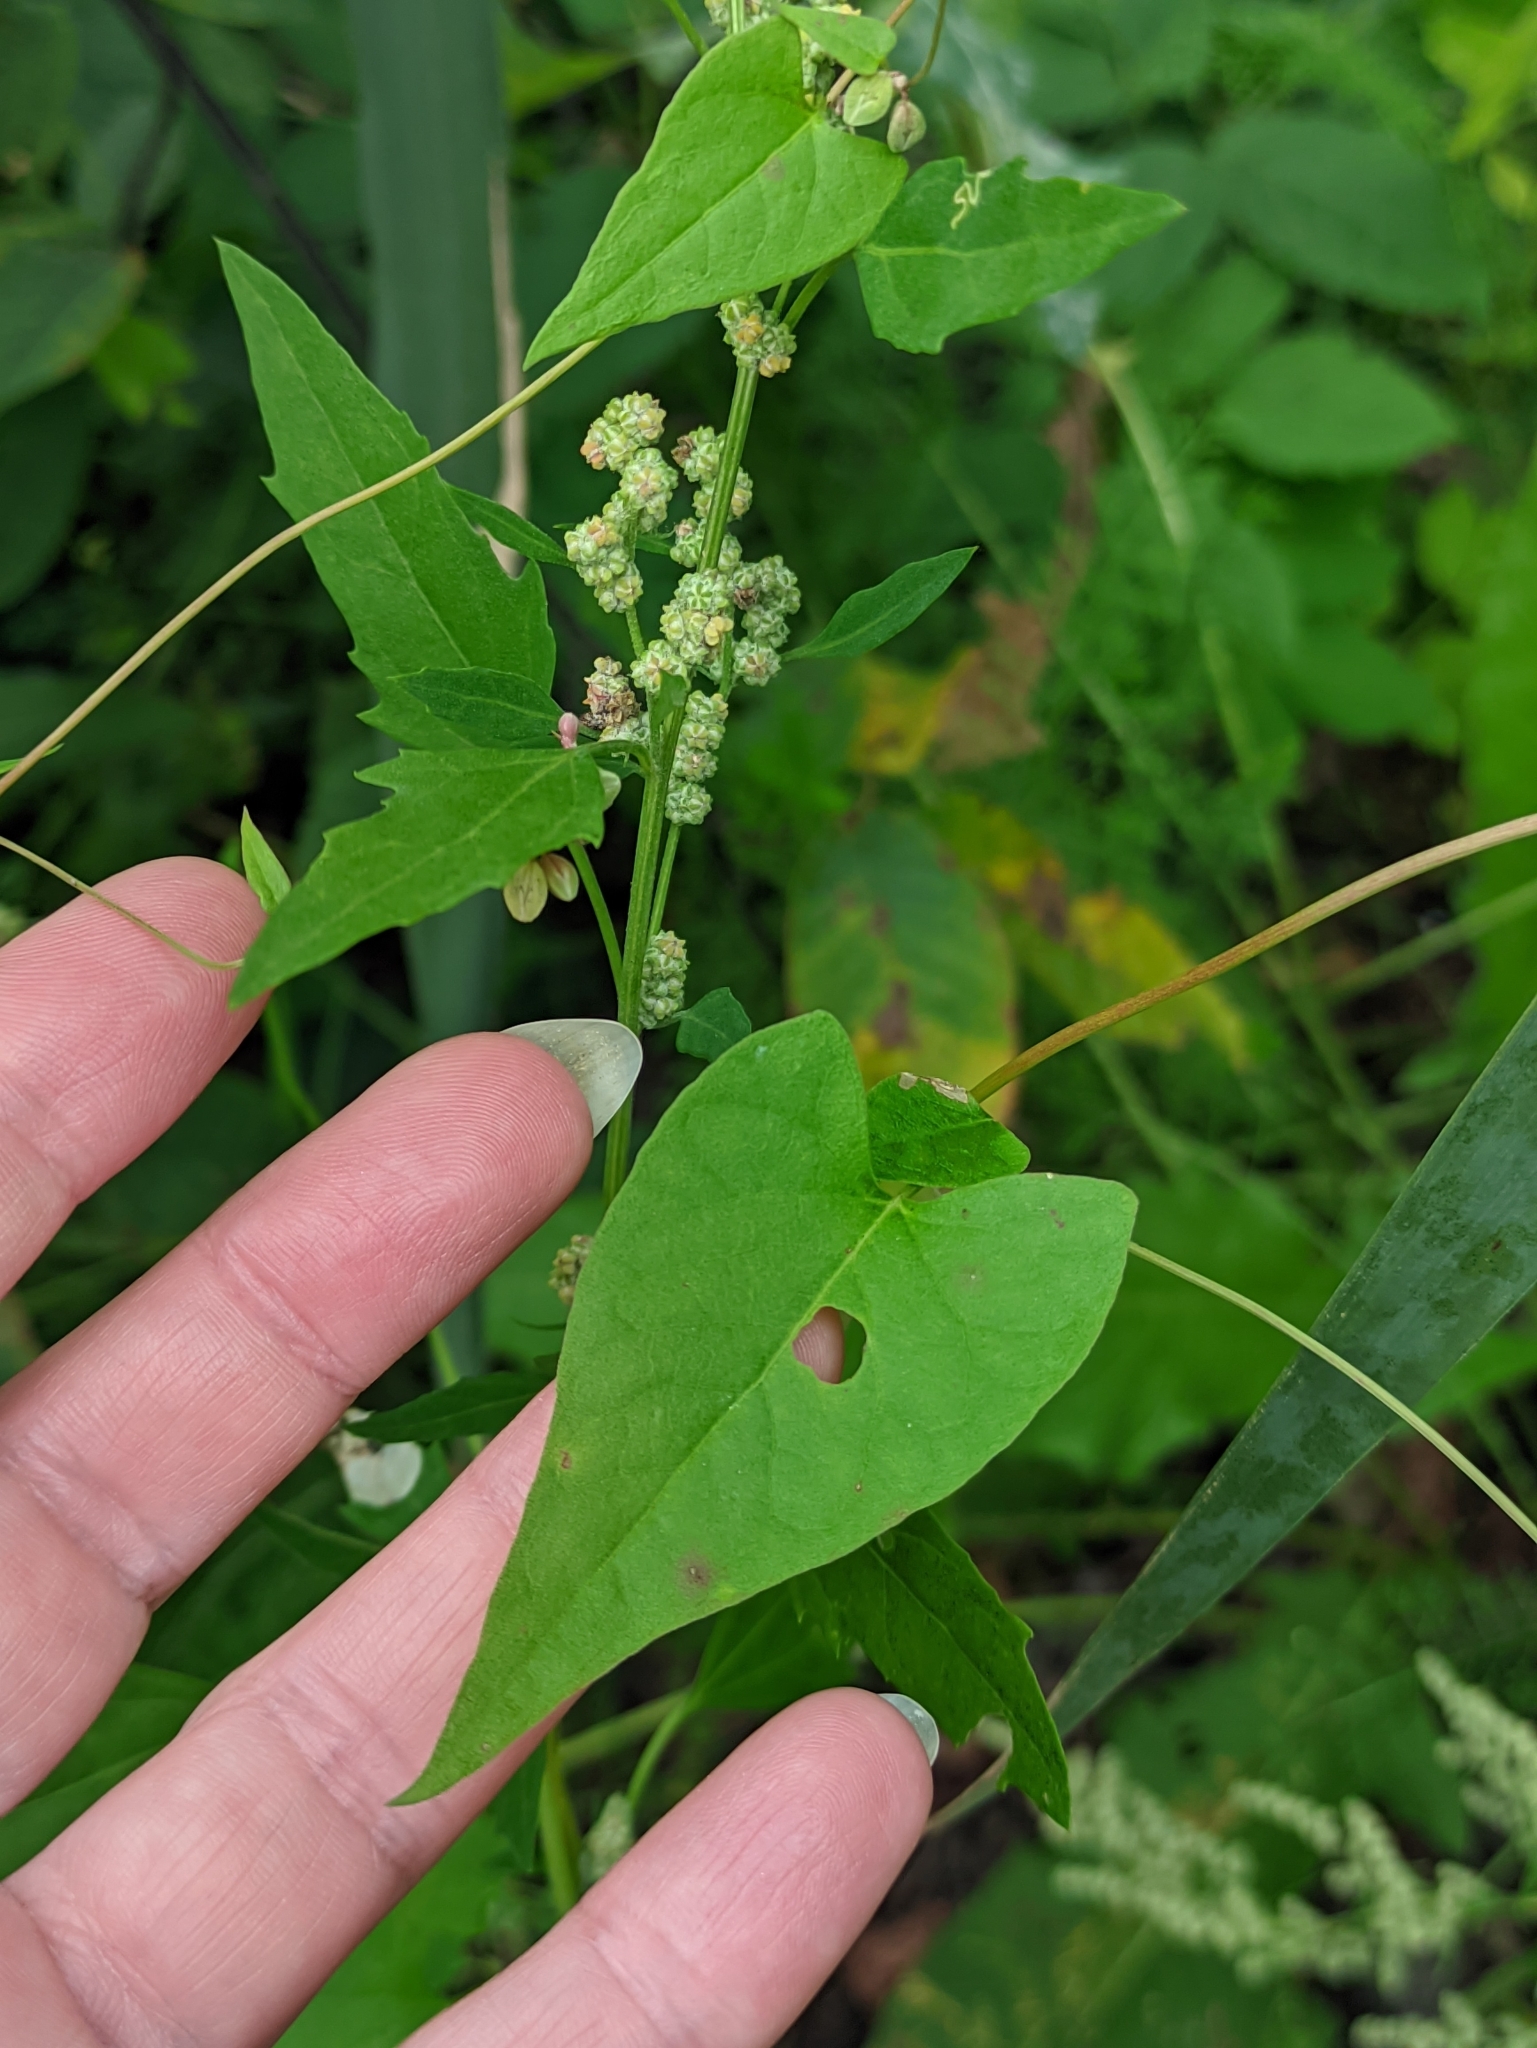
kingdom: Plantae
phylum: Tracheophyta
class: Magnoliopsida
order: Caryophyllales
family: Polygonaceae
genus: Fallopia
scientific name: Fallopia convolvulus
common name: Black bindweed
